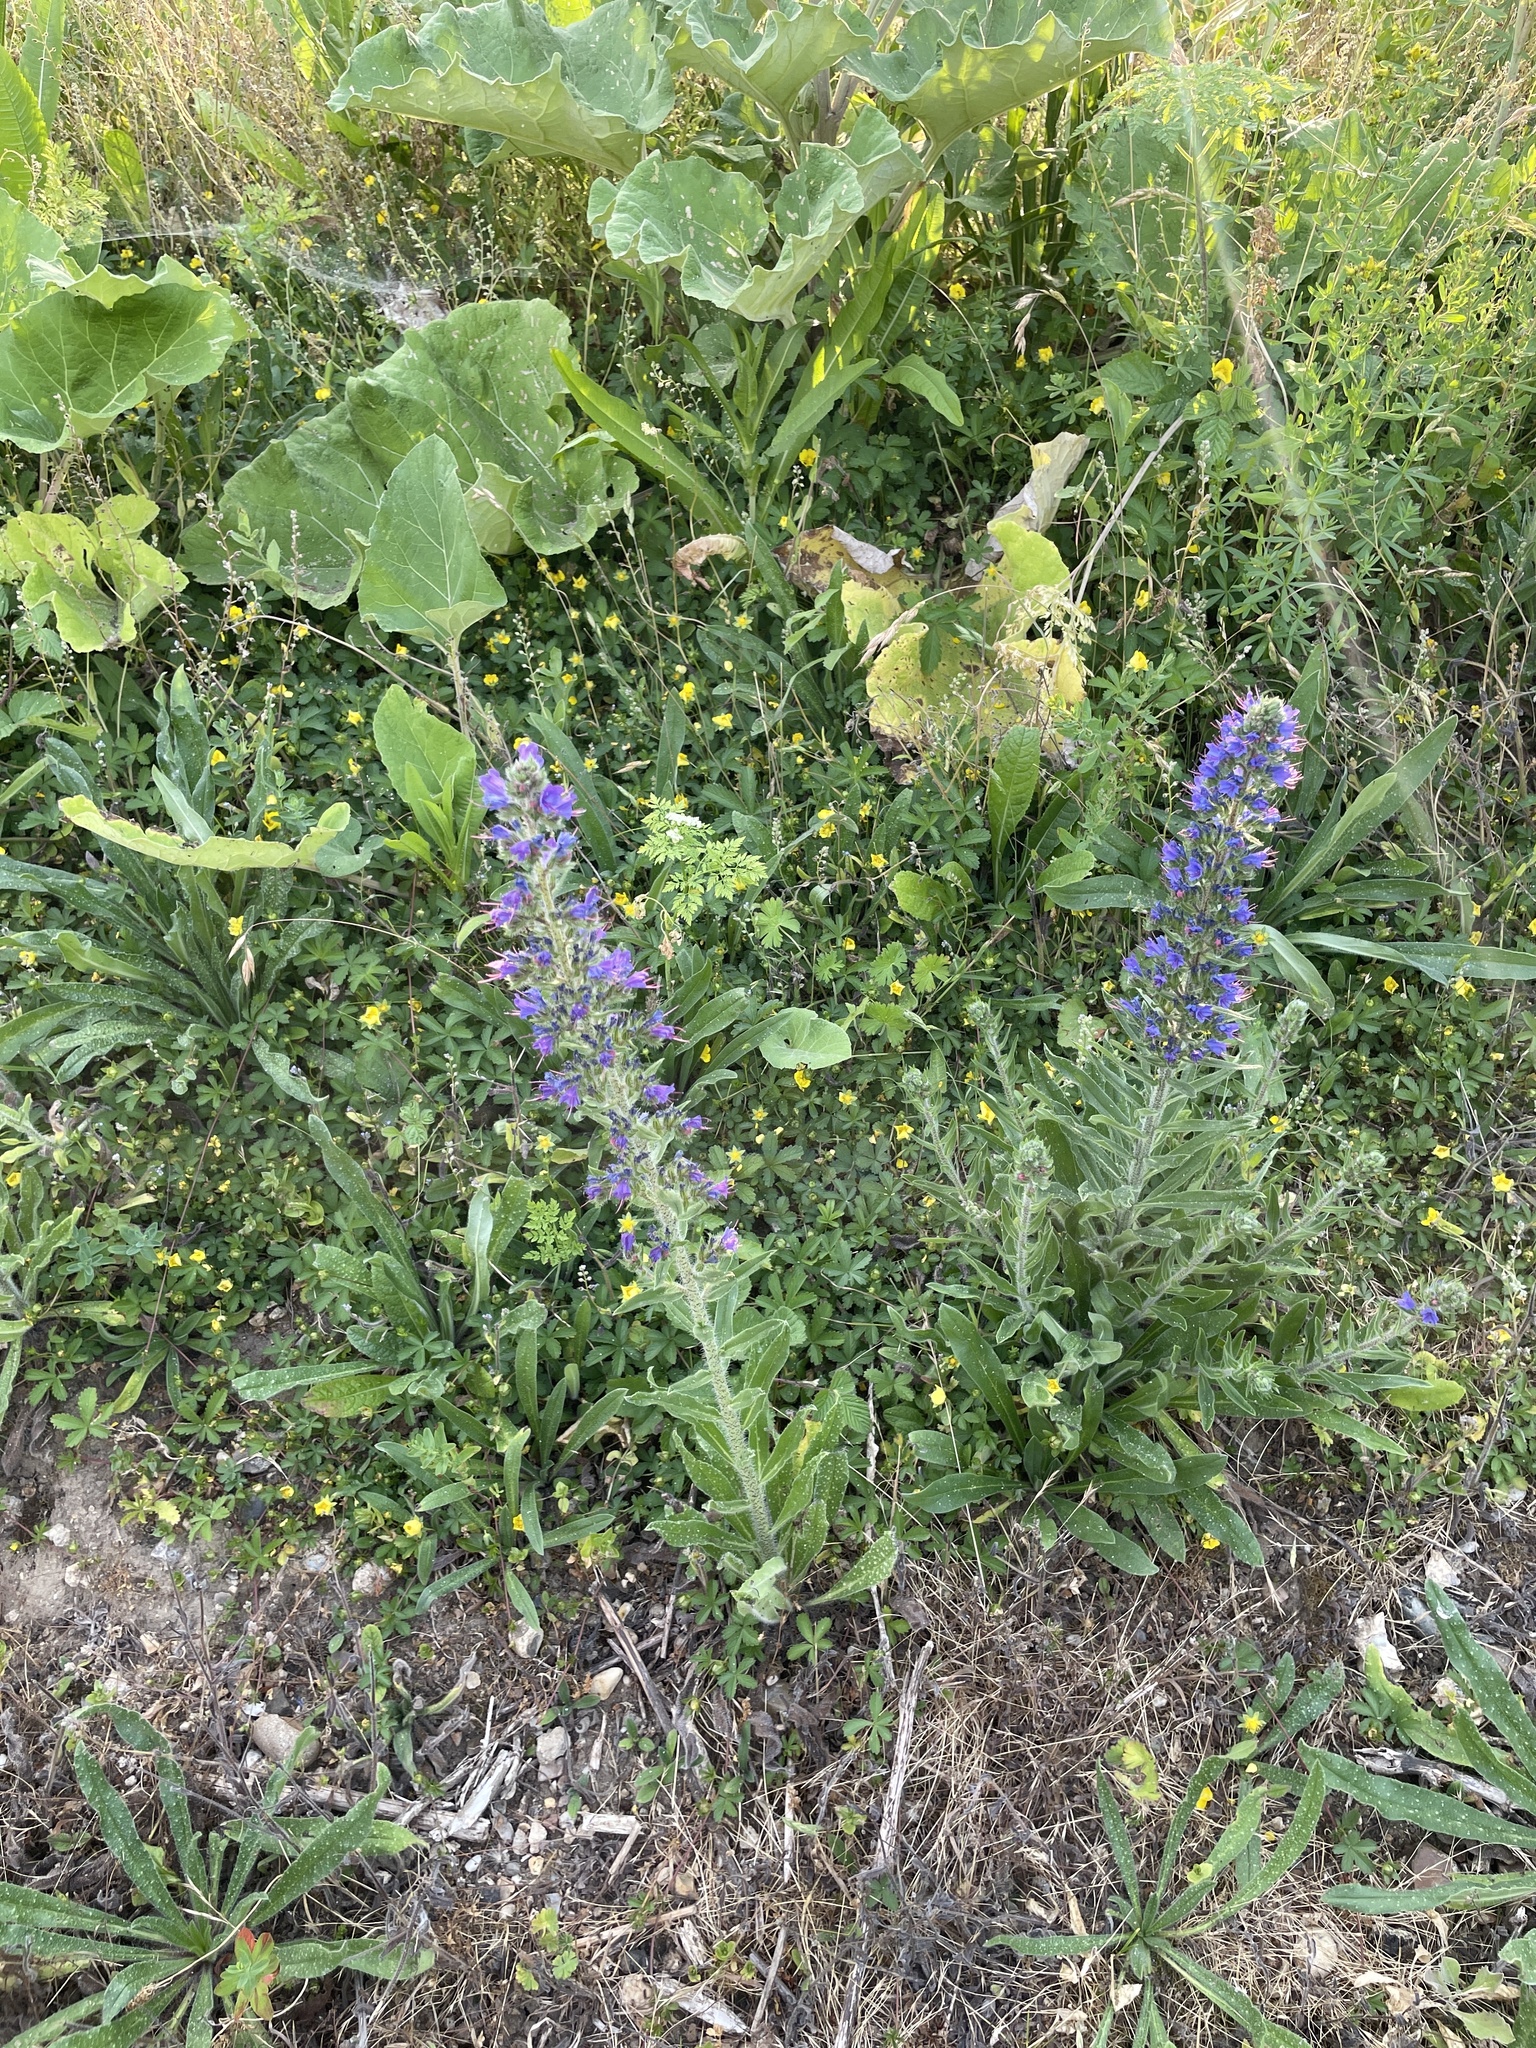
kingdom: Plantae
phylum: Tracheophyta
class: Magnoliopsida
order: Boraginales
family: Boraginaceae
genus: Echium
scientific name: Echium vulgare
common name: Common viper's bugloss
